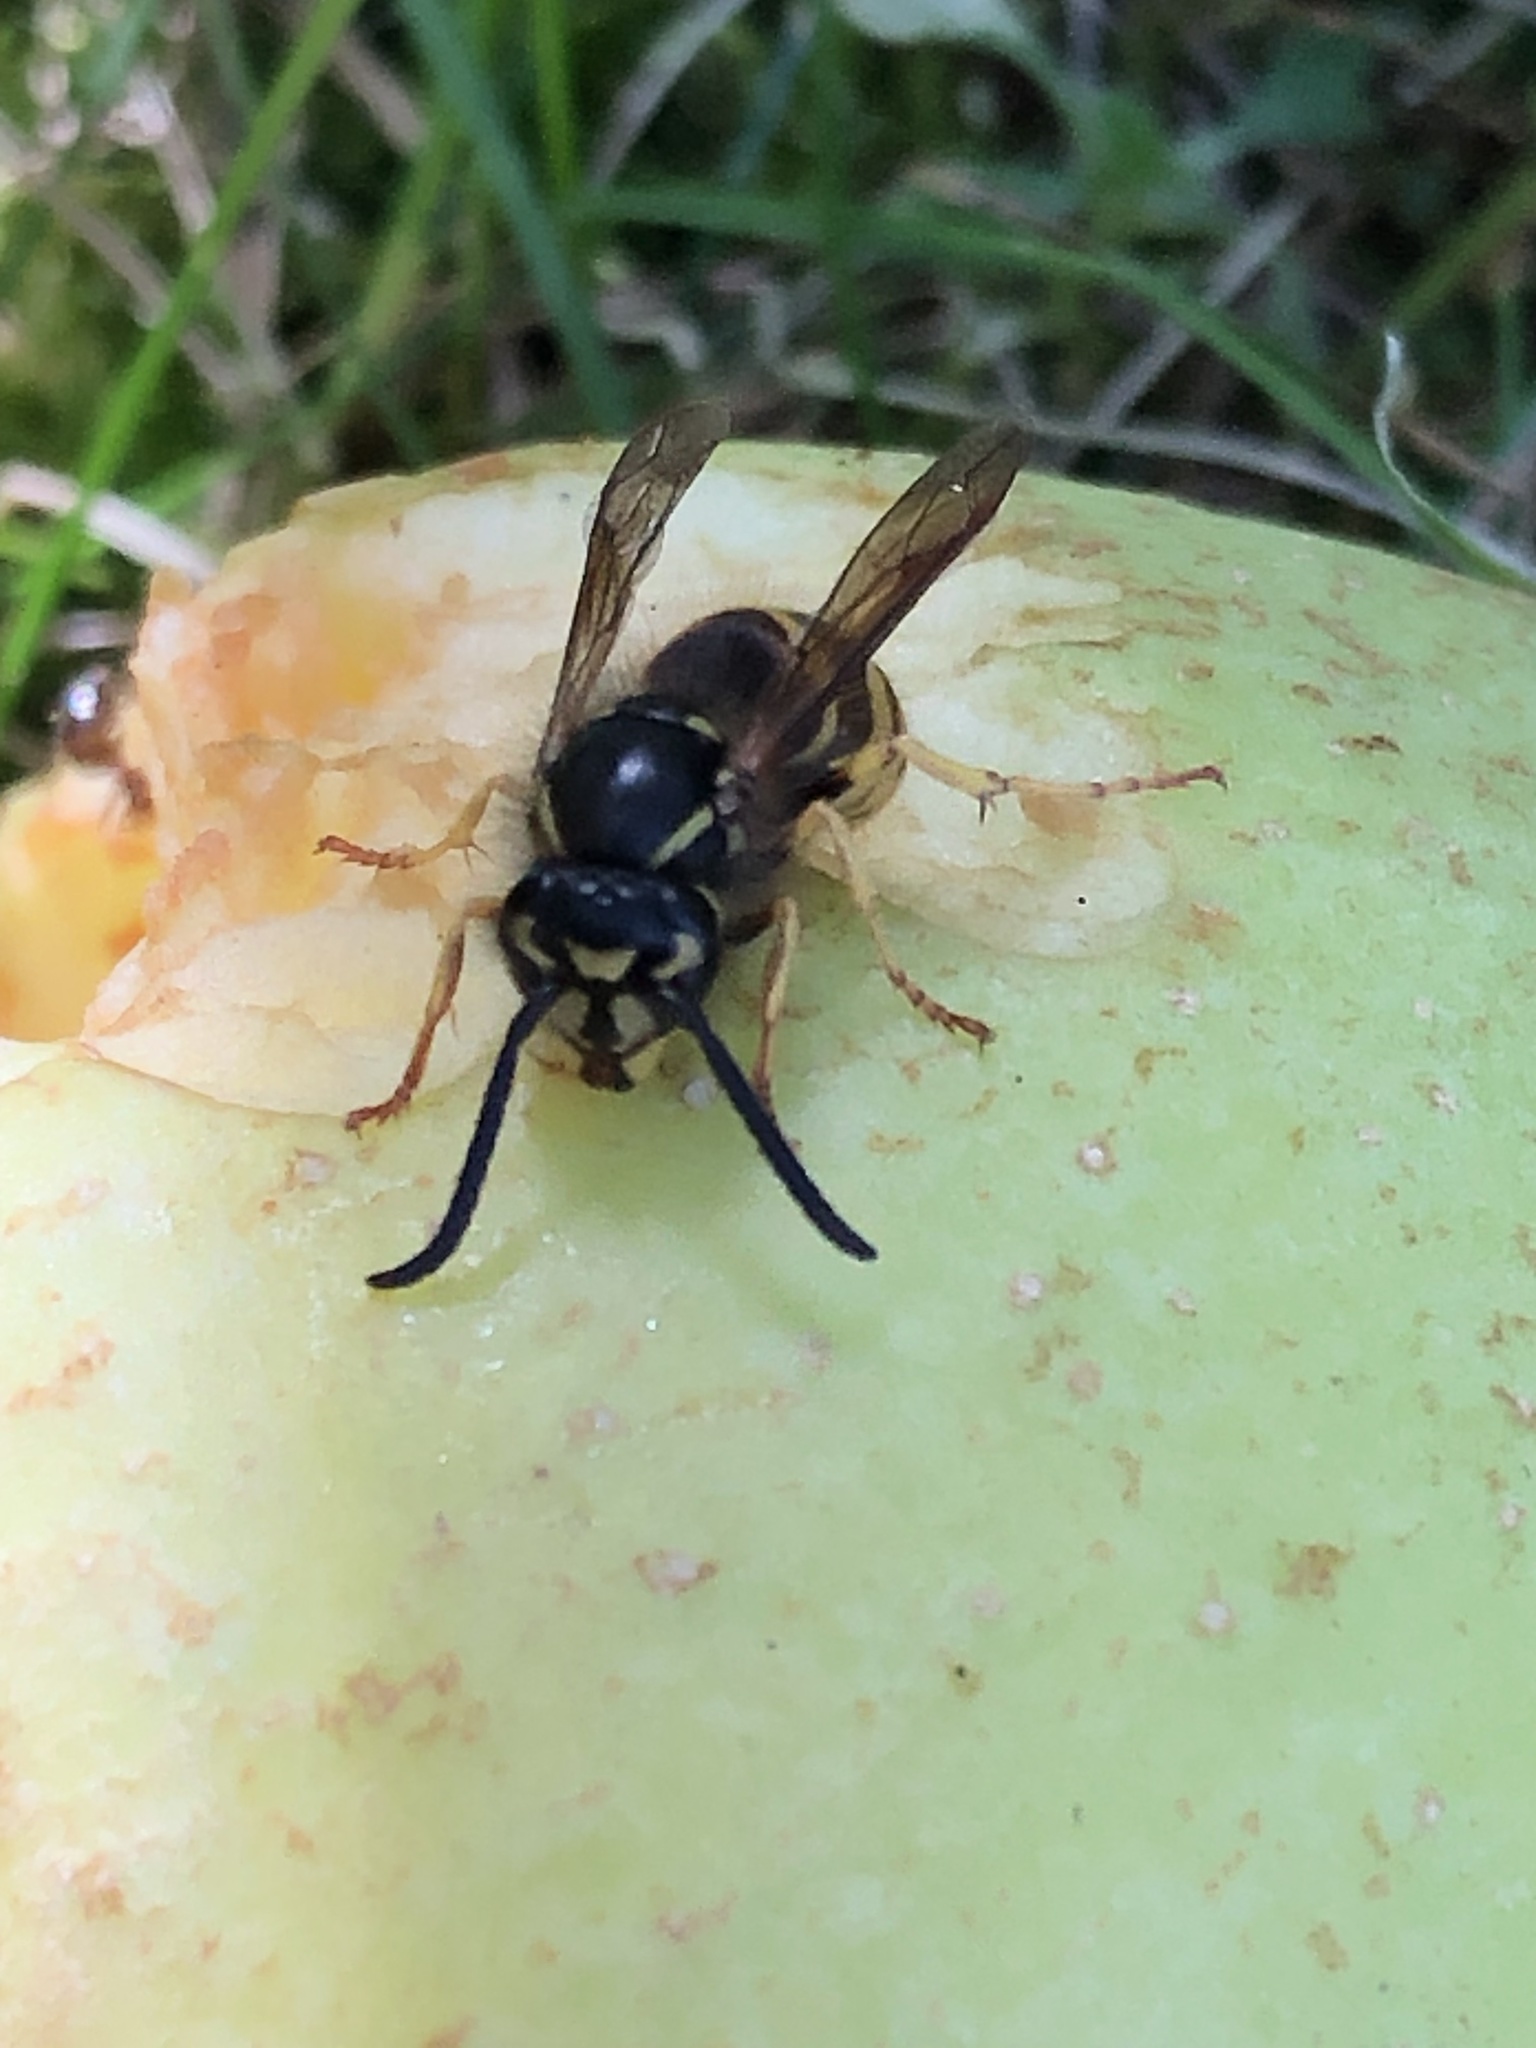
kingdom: Animalia
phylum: Arthropoda
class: Insecta
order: Hymenoptera
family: Vespidae
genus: Vespula
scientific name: Vespula alascensis
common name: Alaska yellowjacket
